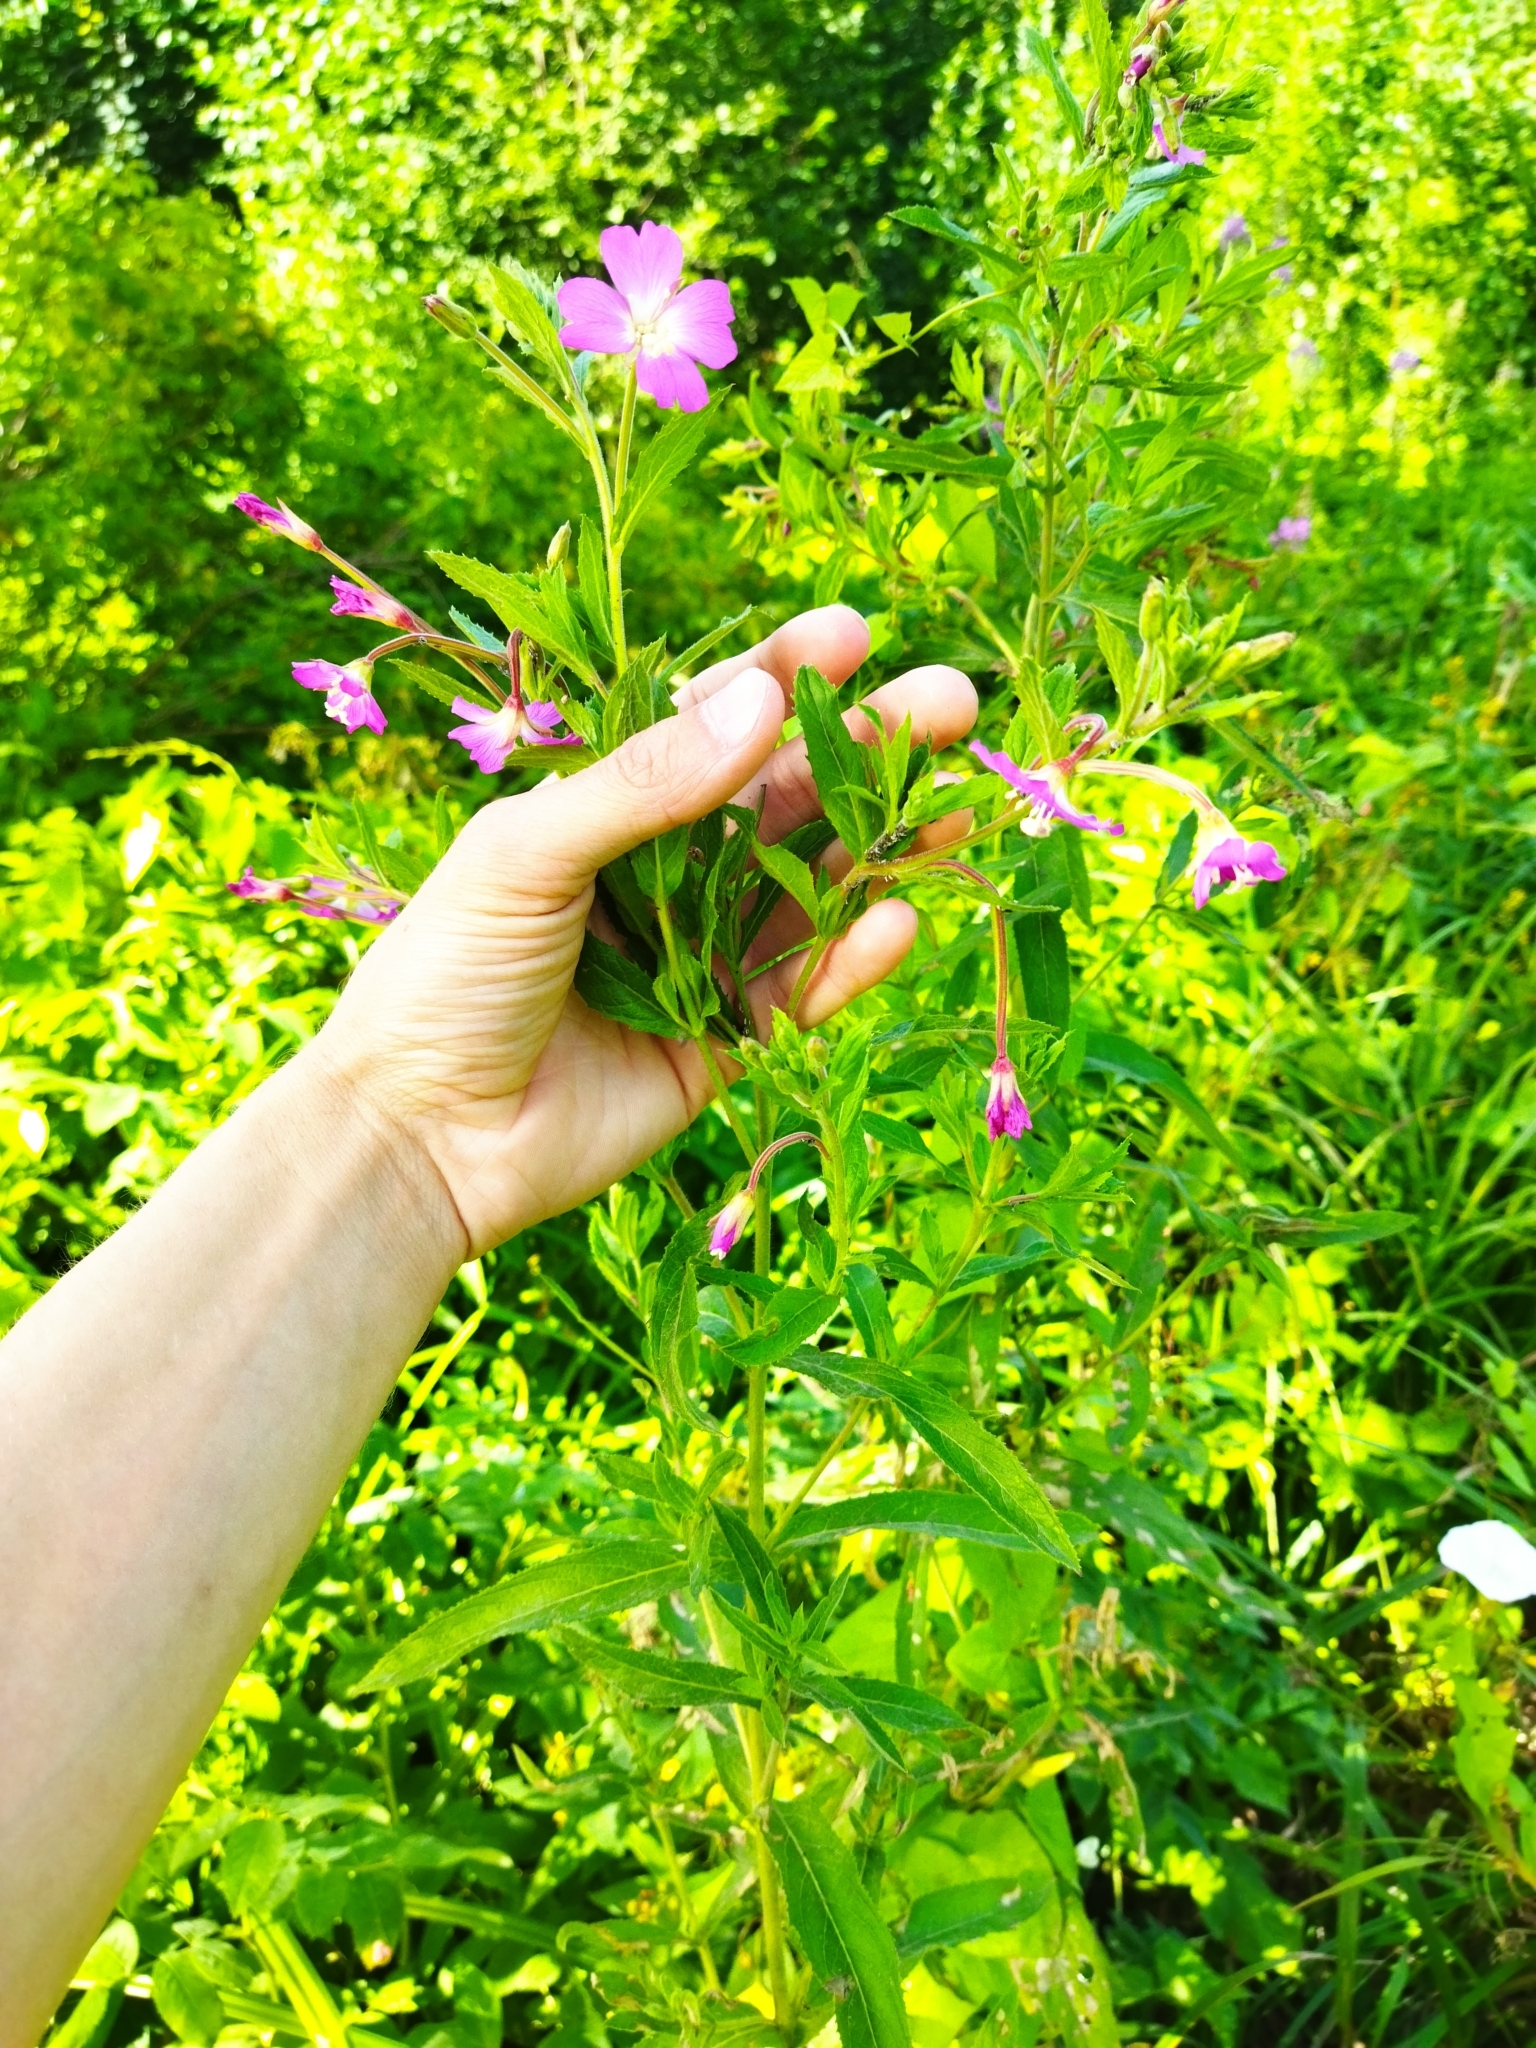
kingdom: Plantae
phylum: Tracheophyta
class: Magnoliopsida
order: Myrtales
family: Onagraceae
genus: Epilobium
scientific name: Epilobium hirsutum
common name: Great willowherb
